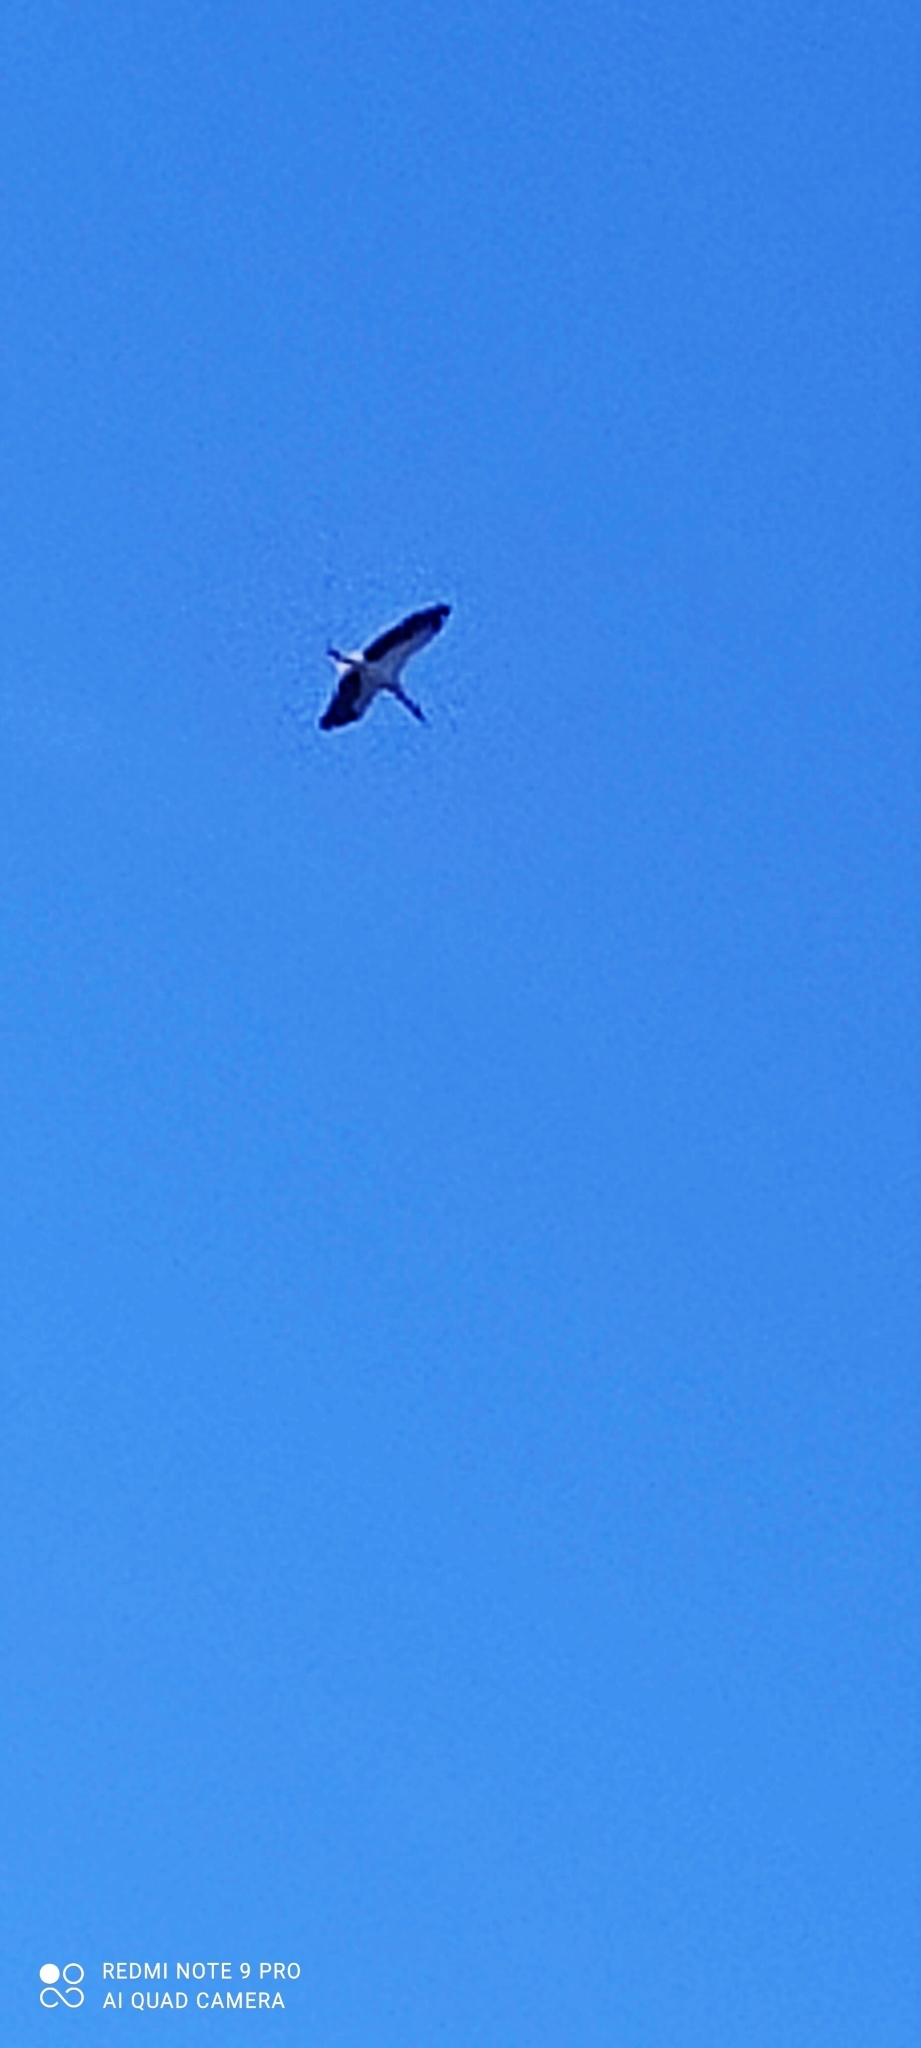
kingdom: Animalia
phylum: Chordata
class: Aves
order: Ciconiiformes
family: Ciconiidae
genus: Ciconia
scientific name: Ciconia ciconia
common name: White stork
